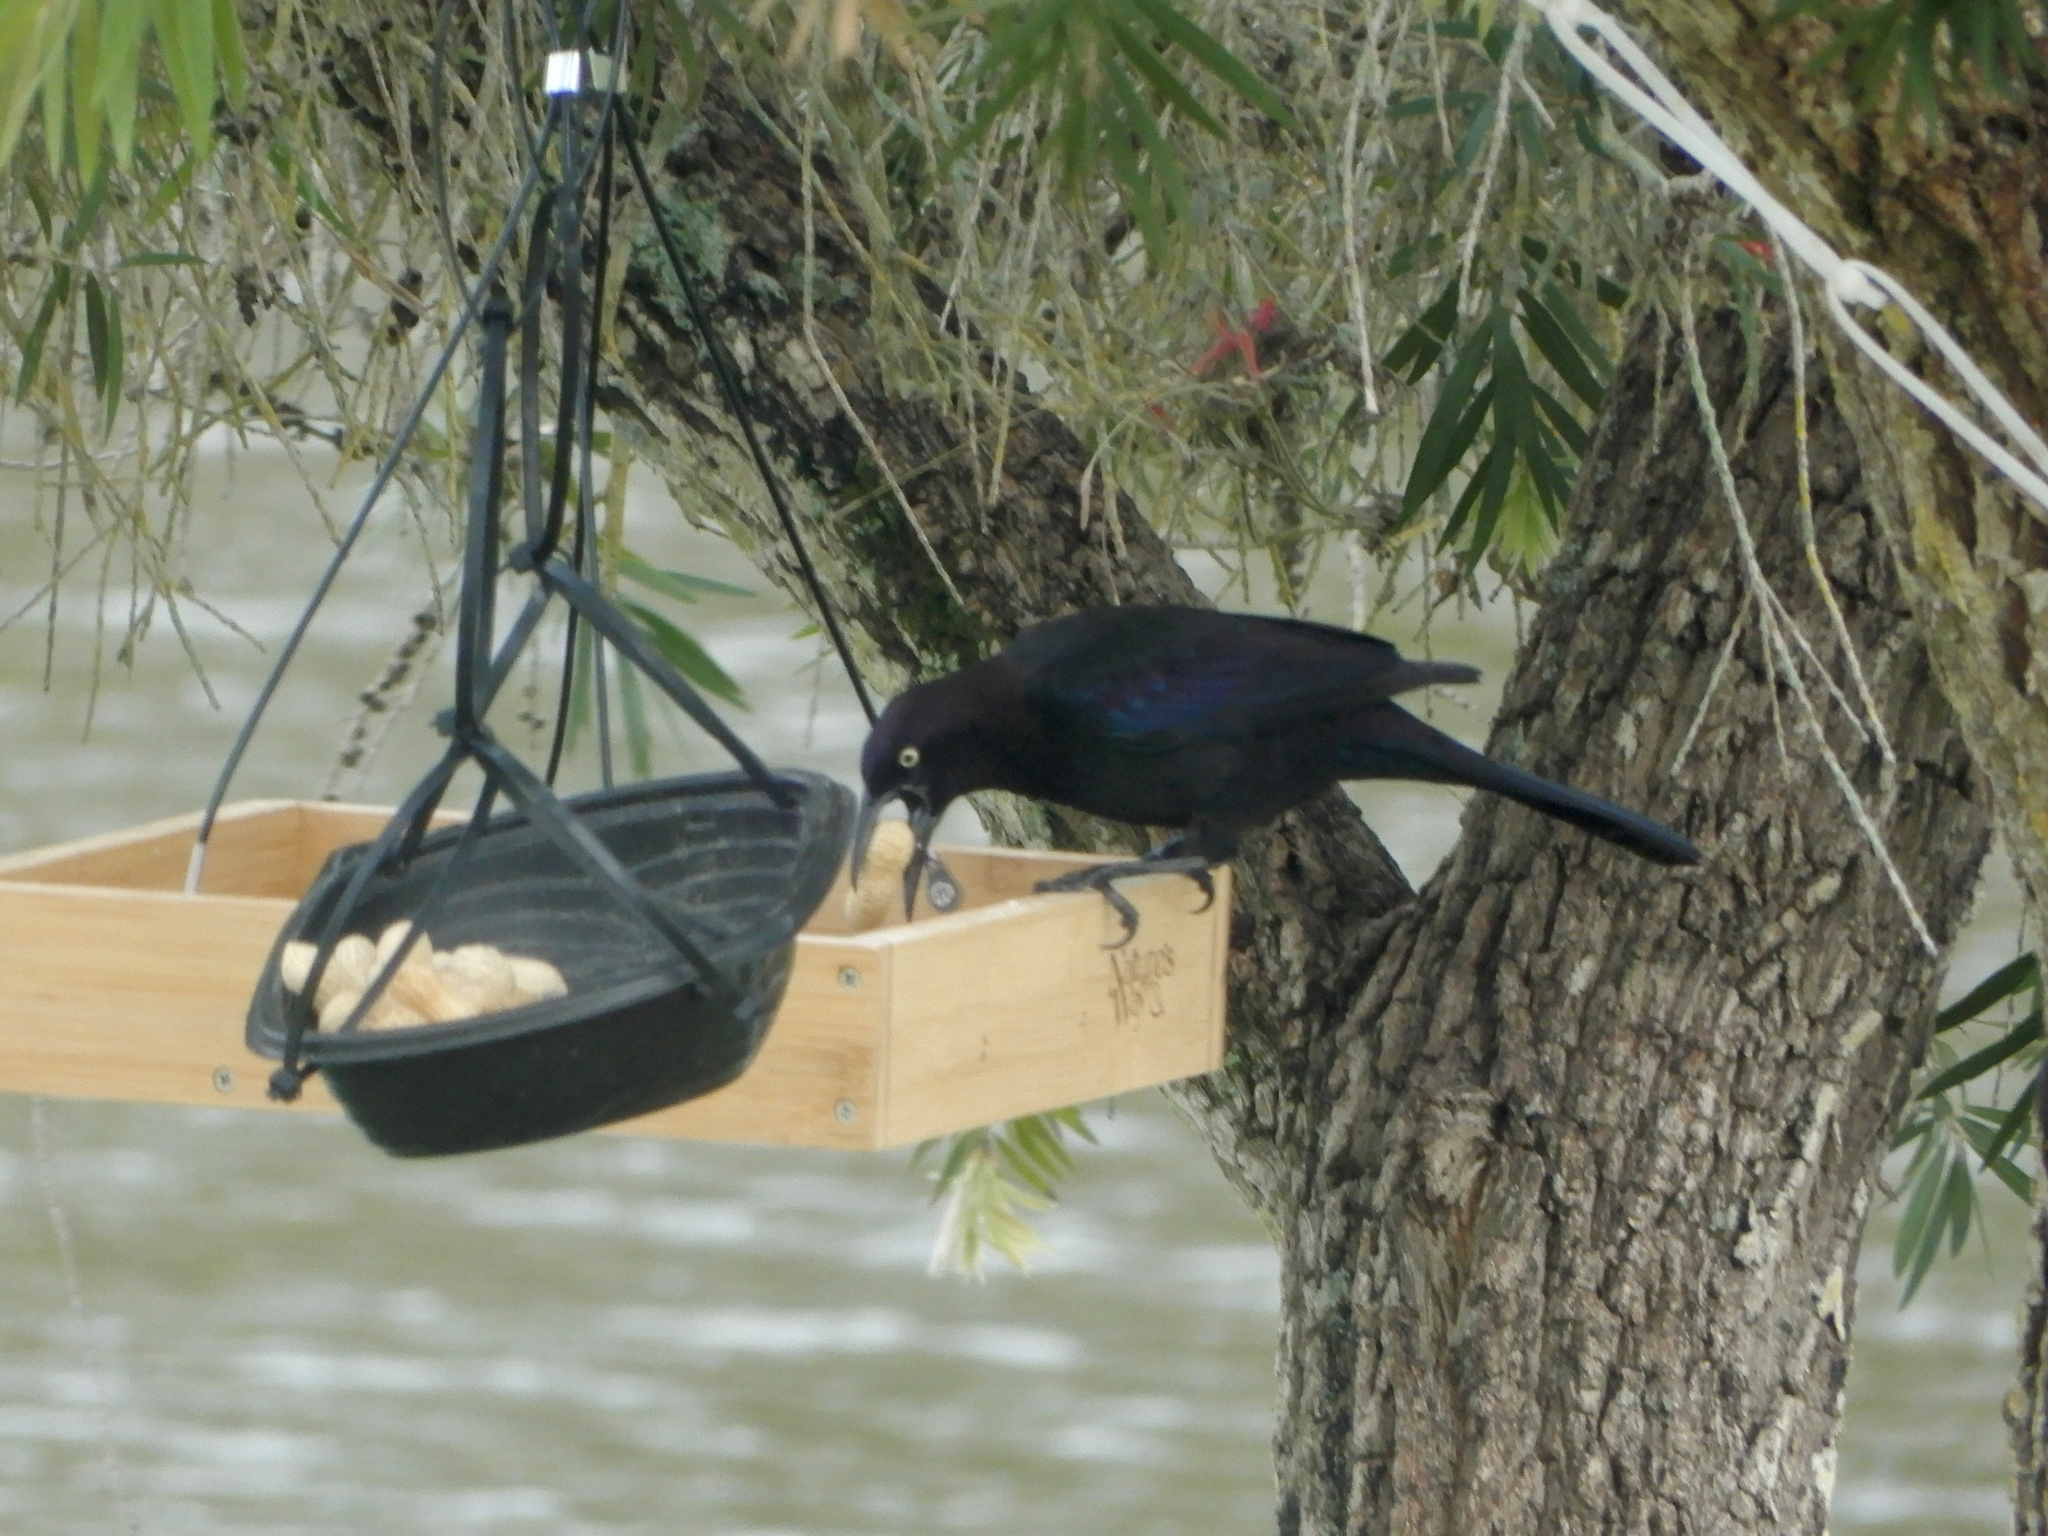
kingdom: Animalia
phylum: Chordata
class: Aves
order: Passeriformes
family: Icteridae
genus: Quiscalus
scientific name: Quiscalus quiscula
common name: Common grackle
